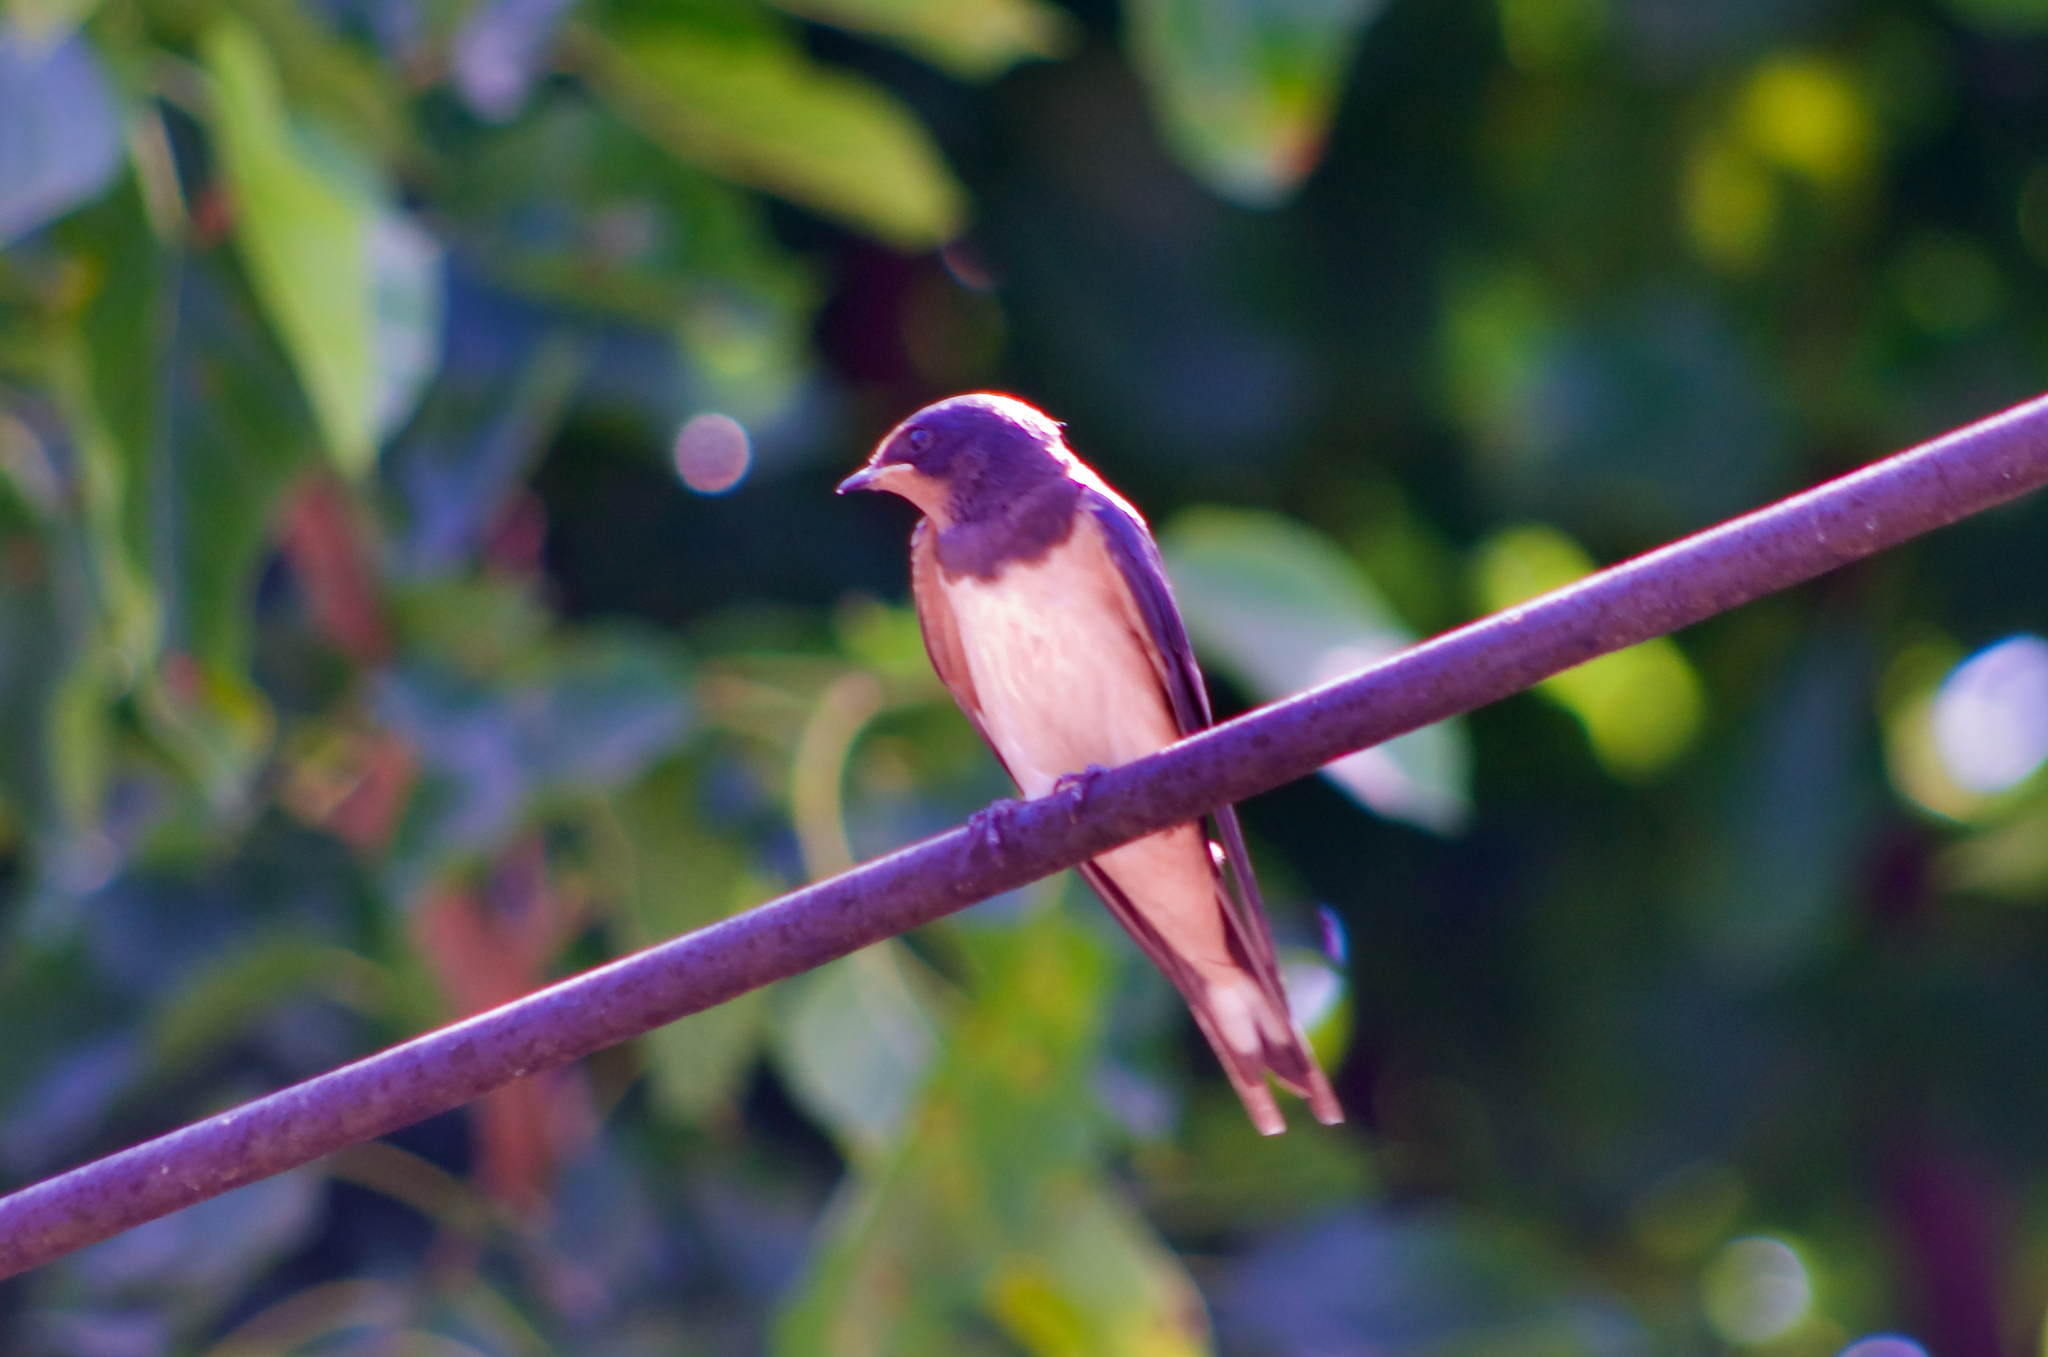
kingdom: Animalia
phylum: Chordata
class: Aves
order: Passeriformes
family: Hirundinidae
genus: Hirundo
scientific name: Hirundo rustica
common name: Barn swallow
